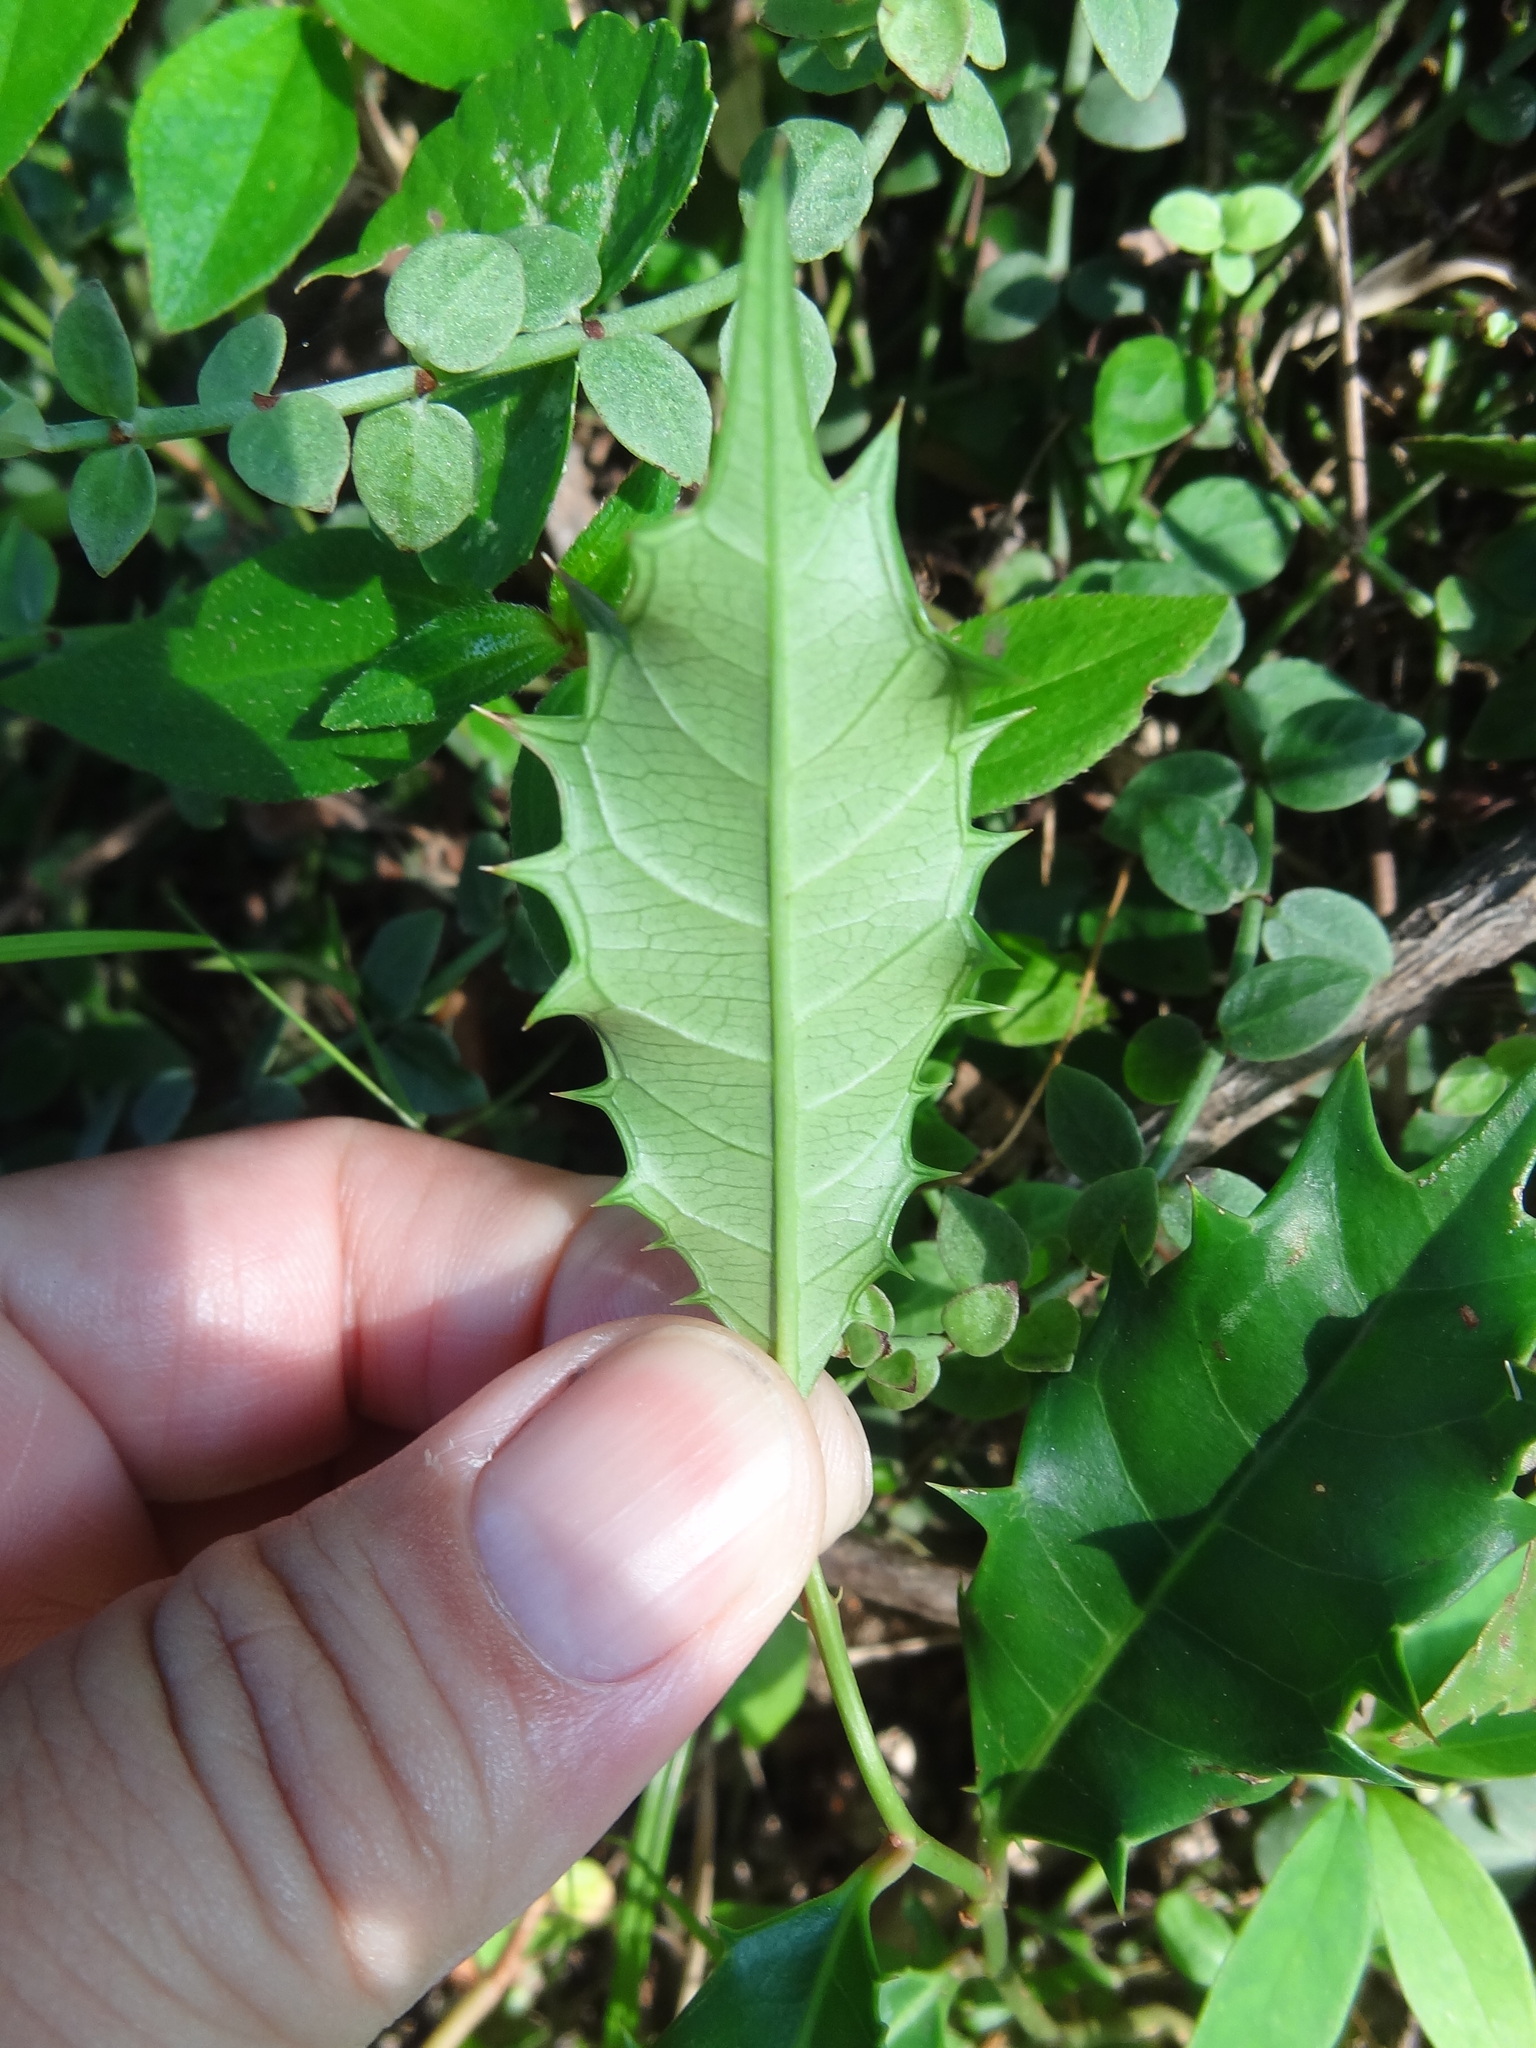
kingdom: Plantae
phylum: Tracheophyta
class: Magnoliopsida
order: Saxifragales
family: Iteaceae
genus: Itea
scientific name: Itea oldhamii
